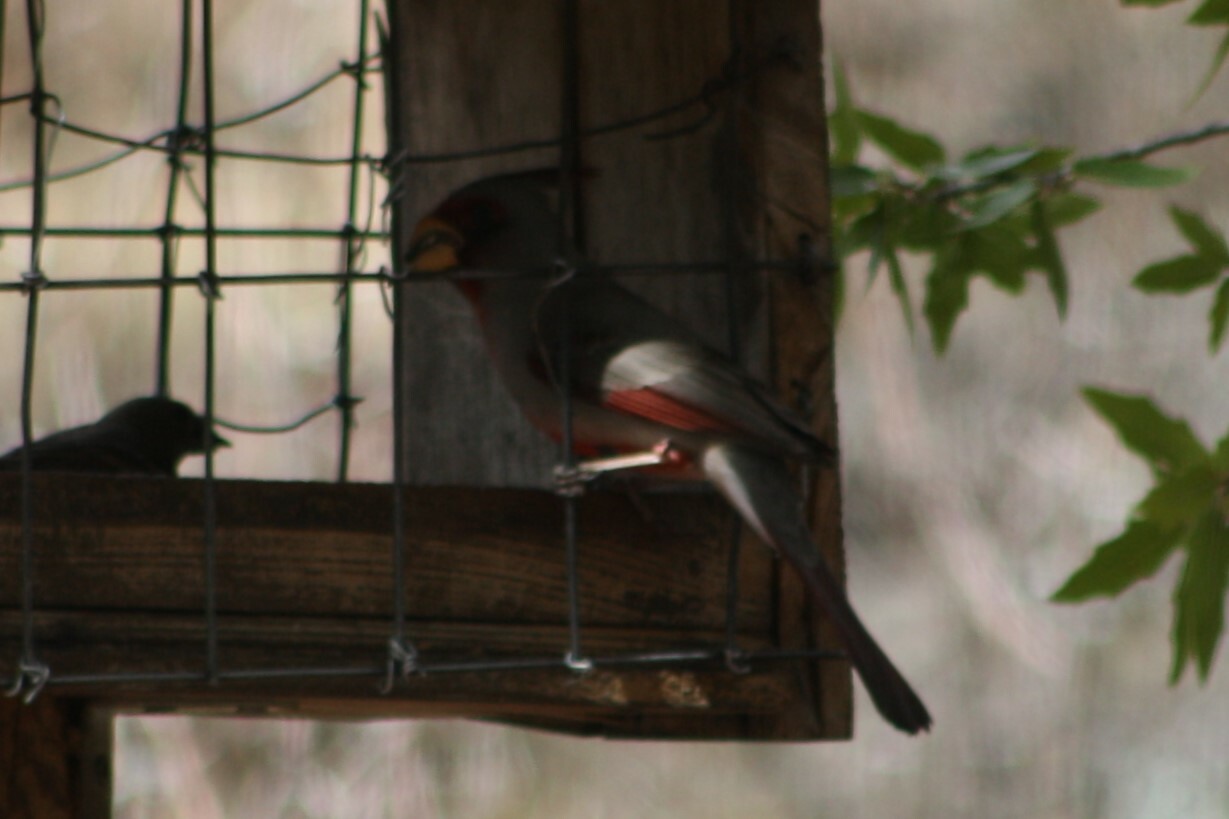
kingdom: Animalia
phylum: Chordata
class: Aves
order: Passeriformes
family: Cardinalidae
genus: Cardinalis
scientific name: Cardinalis sinuatus
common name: Pyrrhuloxia
